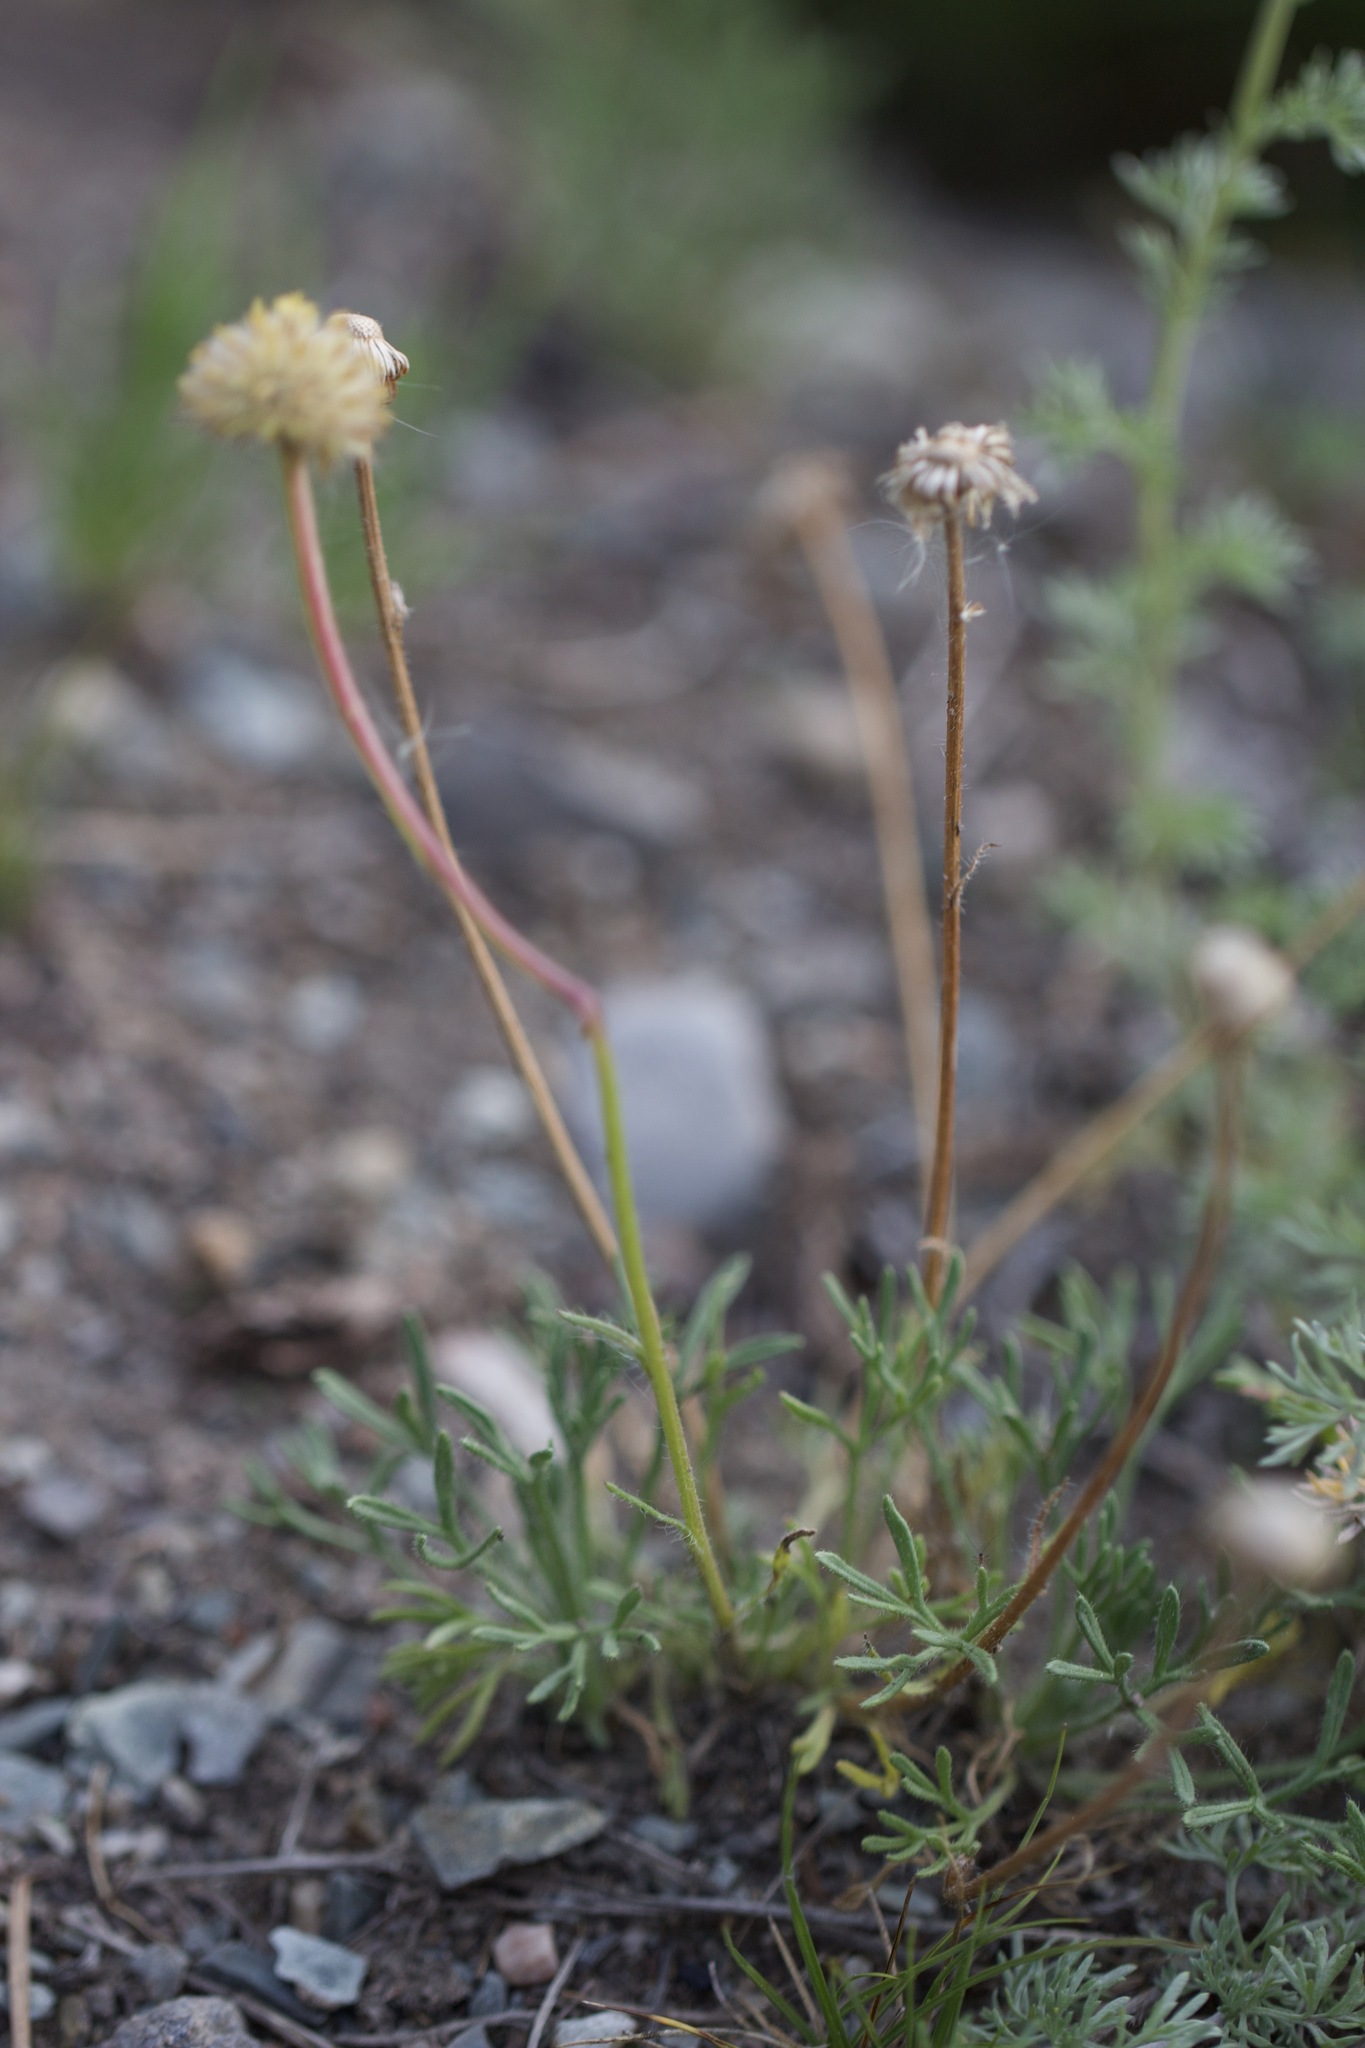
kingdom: Plantae
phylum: Tracheophyta
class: Magnoliopsida
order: Asterales
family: Asteraceae
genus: Erigeron
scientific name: Erigeron compositus
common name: Dwarf mountain fleabane
